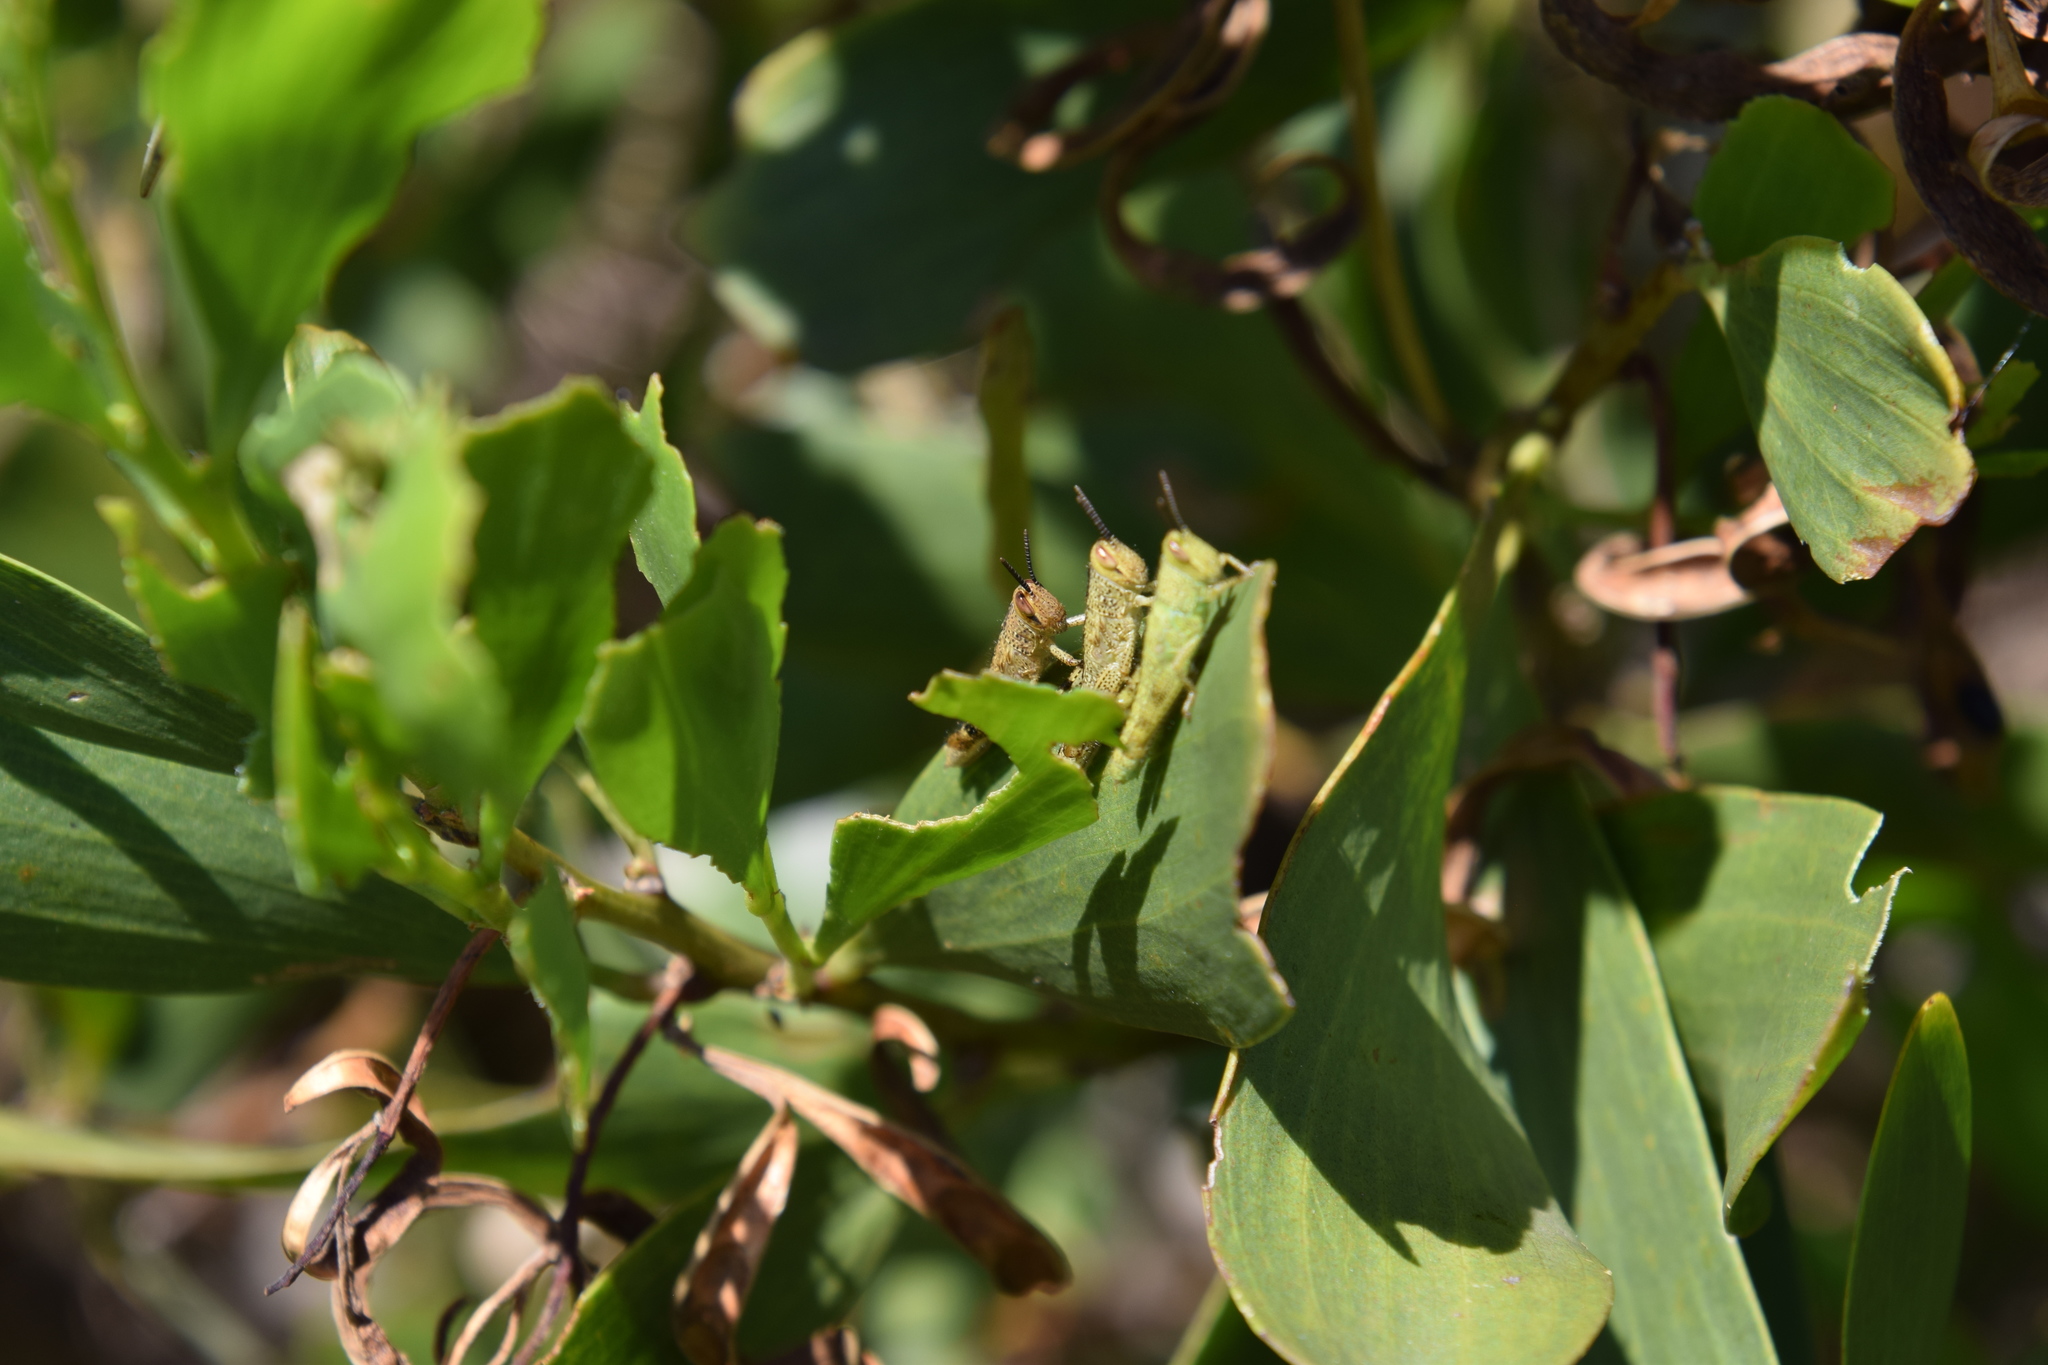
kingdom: Animalia
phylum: Arthropoda
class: Insecta
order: Orthoptera
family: Acrididae
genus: Valanga
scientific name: Valanga irregularis
